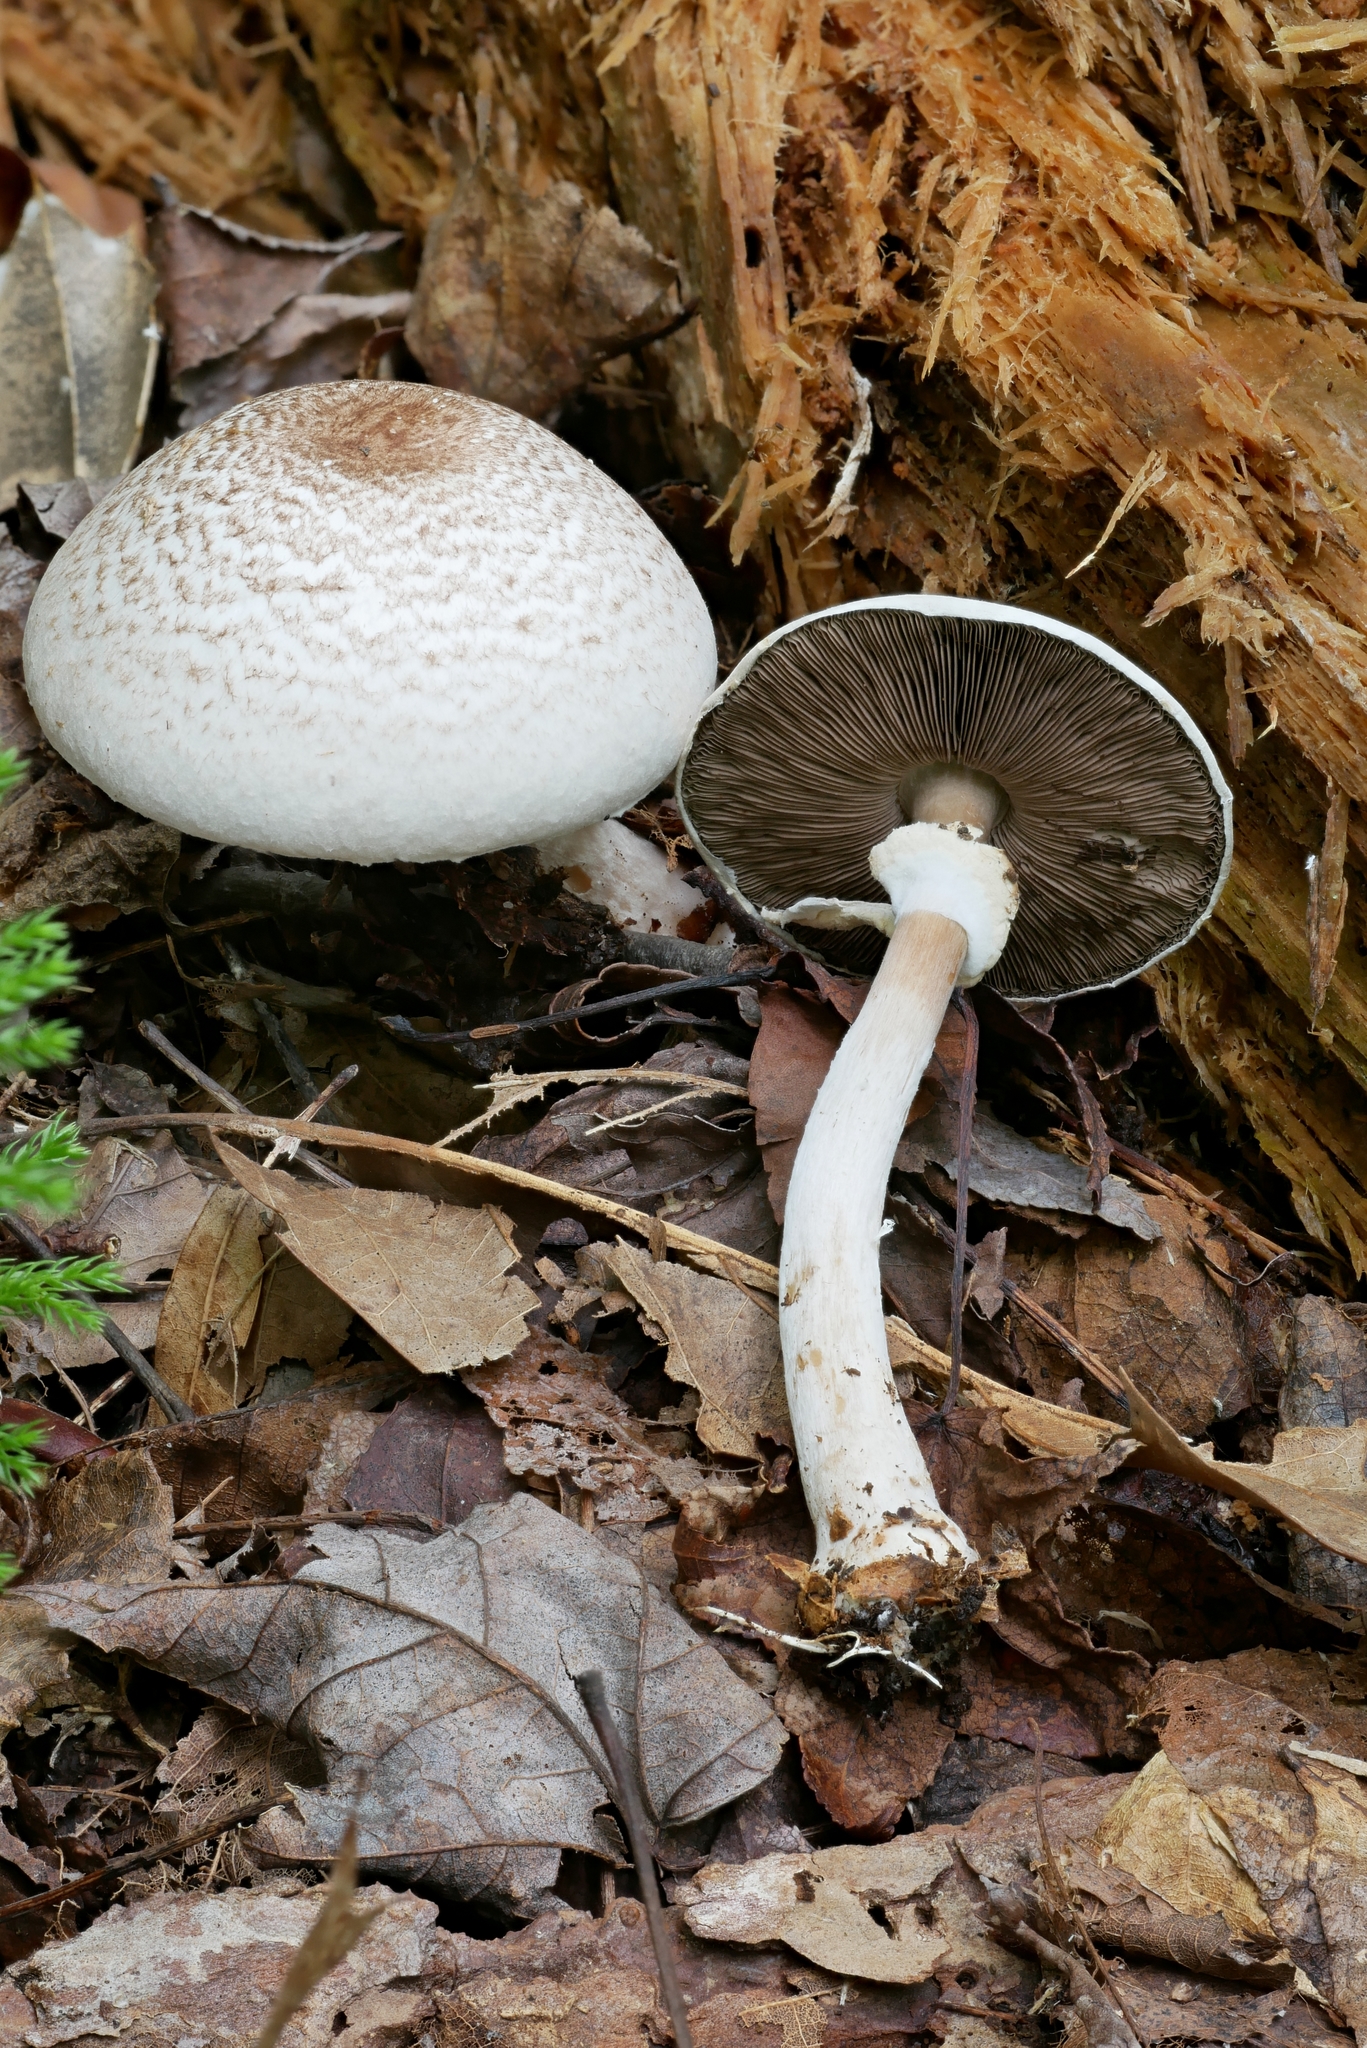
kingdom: Fungi
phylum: Basidiomycota
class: Agaricomycetes
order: Agaricales
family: Agaricaceae
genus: Agaricus
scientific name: Agaricus vinosobrunneofumidus
